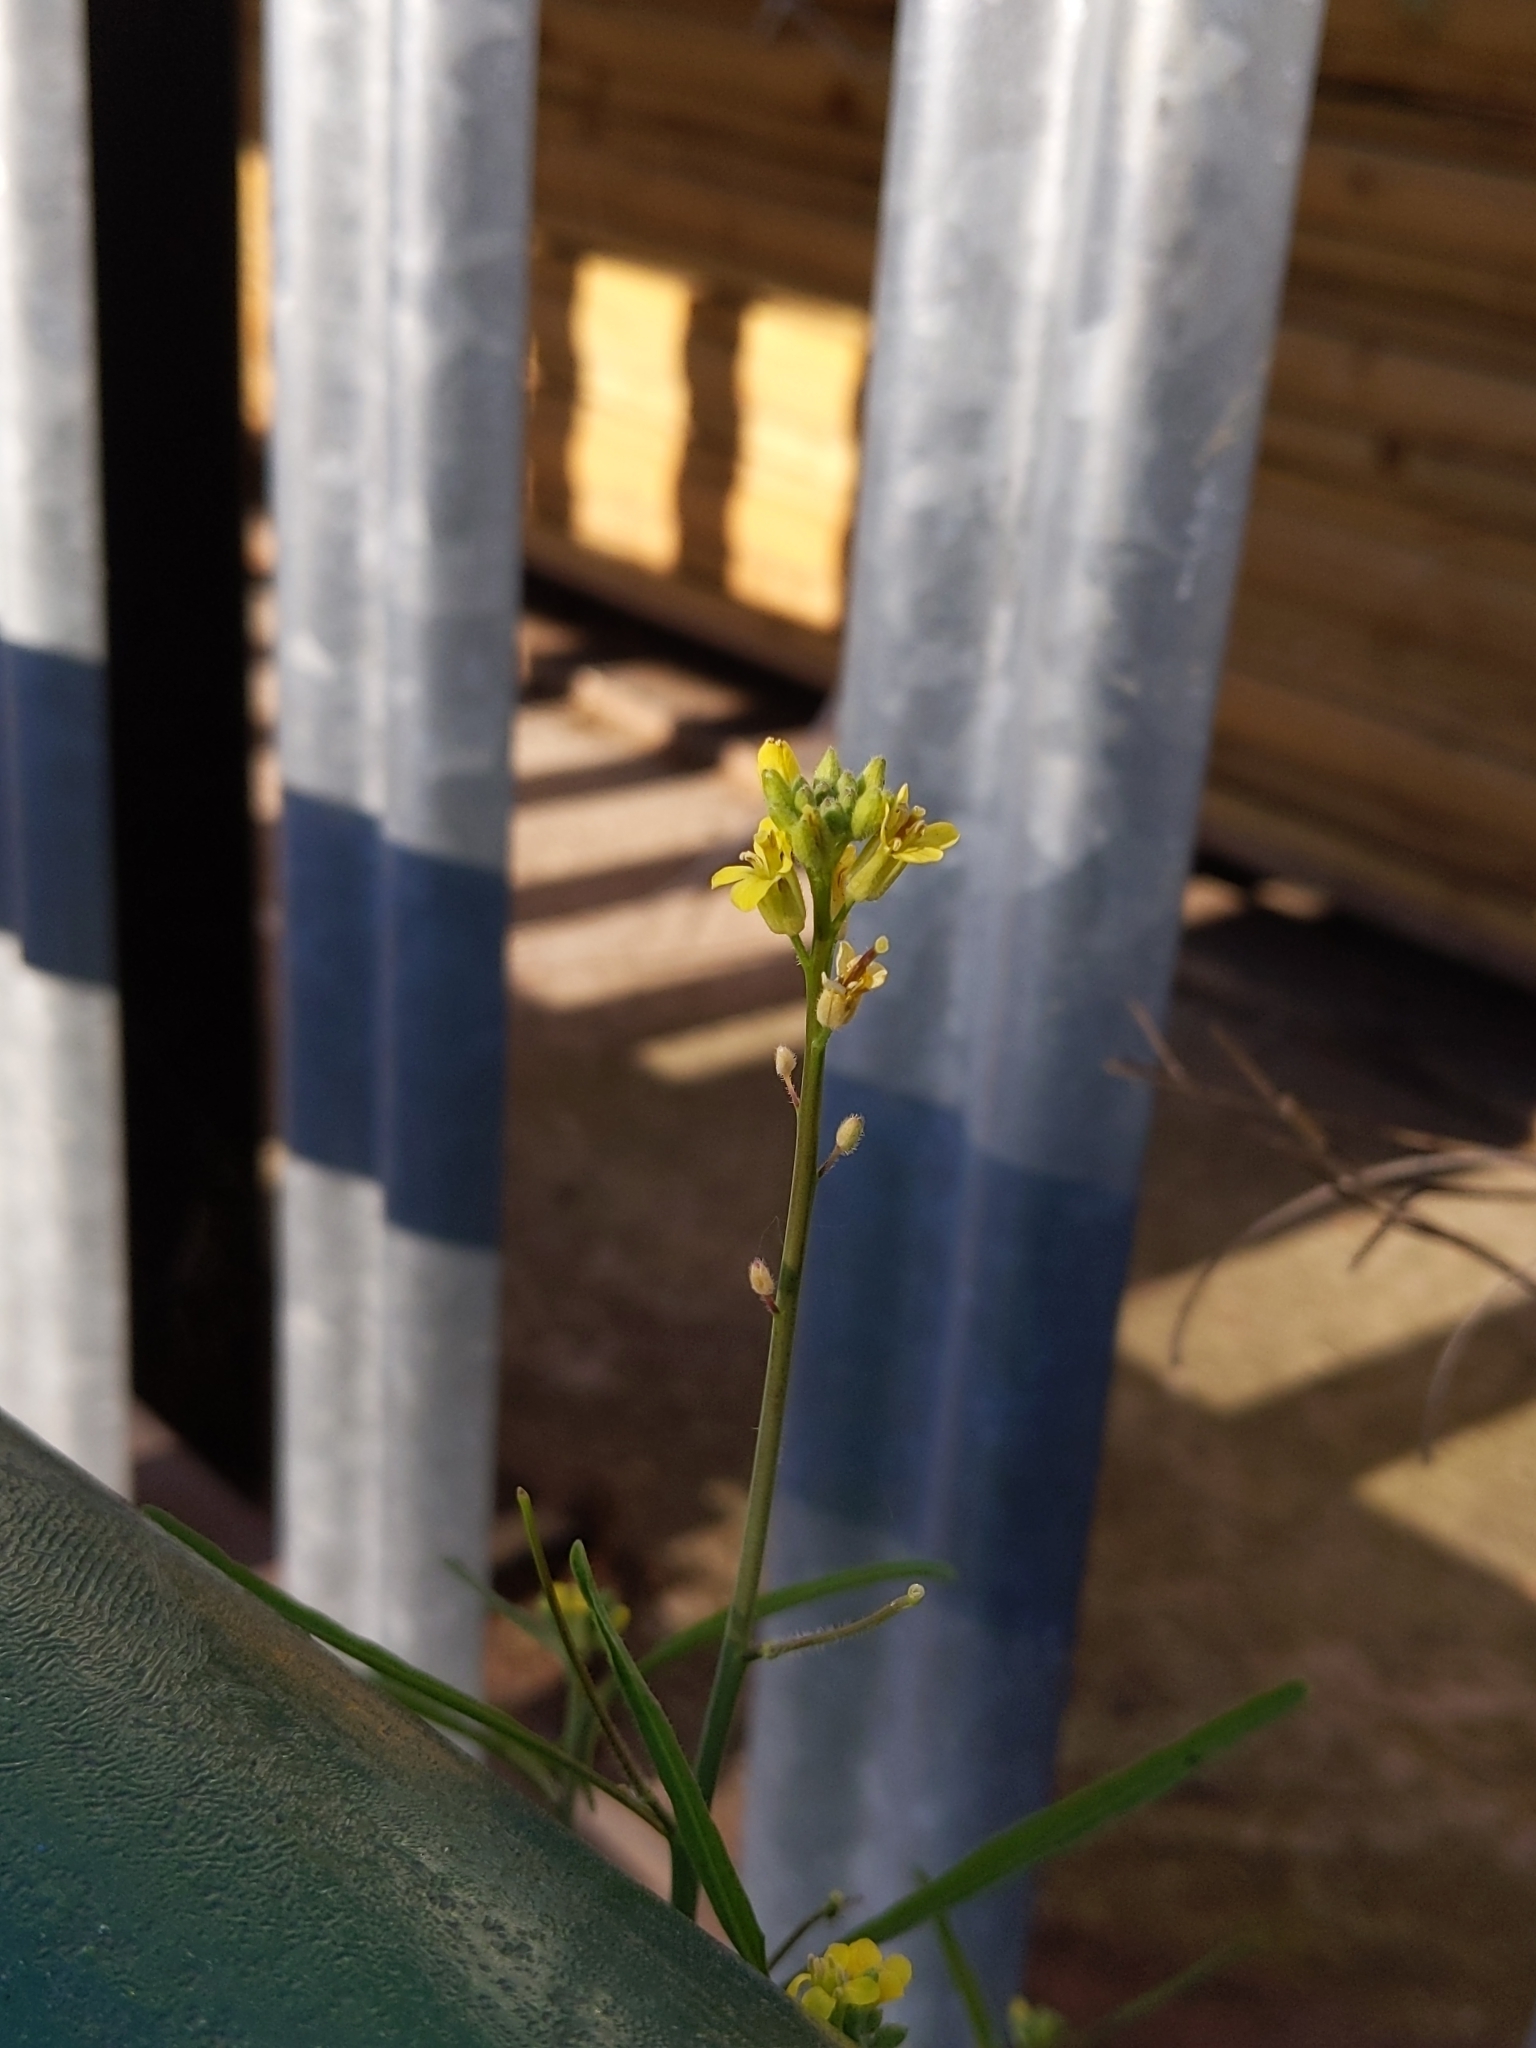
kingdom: Plantae
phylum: Tracheophyta
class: Magnoliopsida
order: Brassicales
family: Brassicaceae
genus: Sisymbrium
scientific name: Sisymbrium orientale
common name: Eastern rocket
